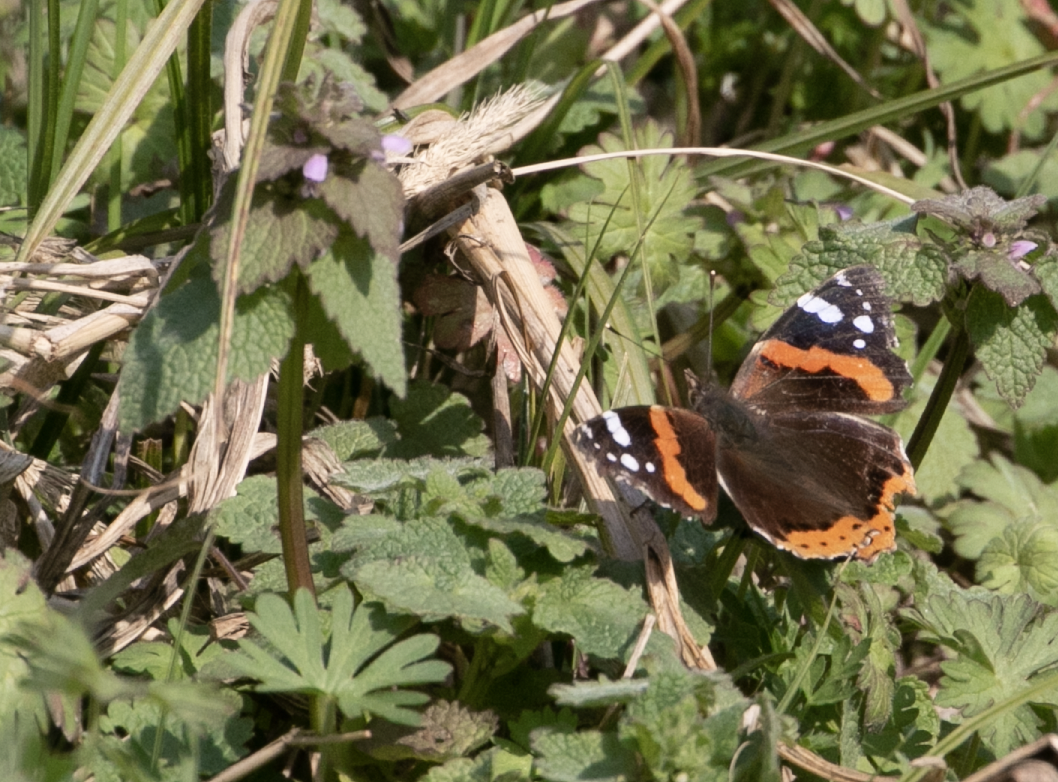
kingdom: Animalia
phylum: Arthropoda
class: Insecta
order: Lepidoptera
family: Nymphalidae
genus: Vanessa
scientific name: Vanessa atalanta
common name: Red admiral
